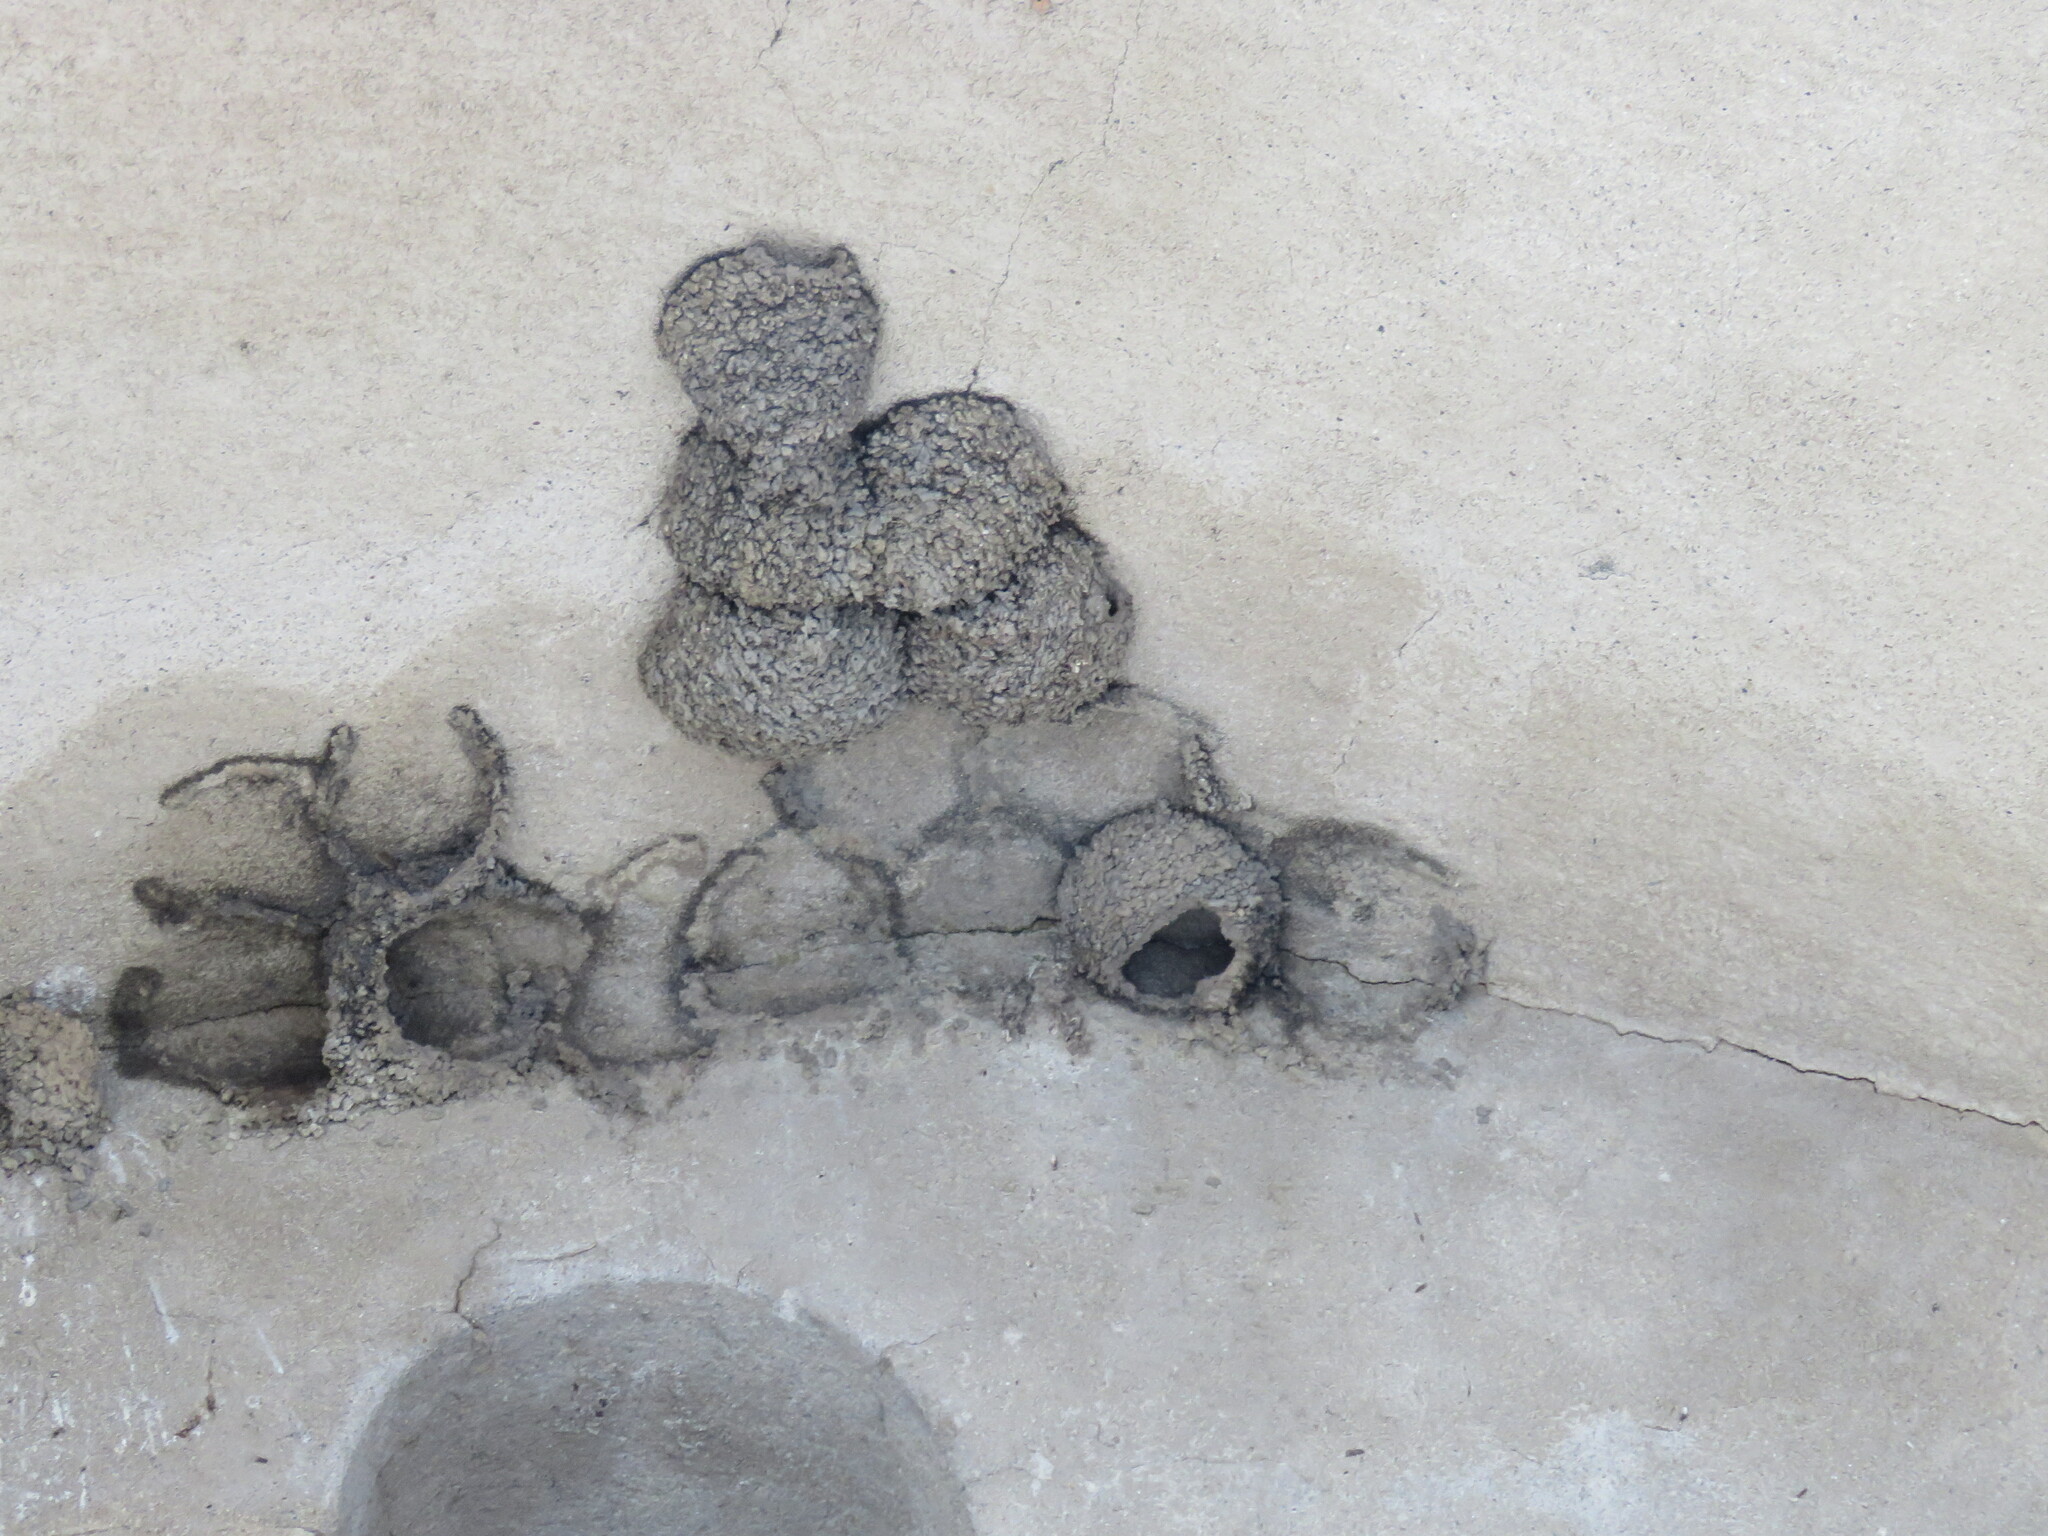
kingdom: Animalia
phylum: Chordata
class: Aves
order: Passeriformes
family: Hirundinidae
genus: Delichon
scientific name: Delichon urbicum
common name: Common house martin
